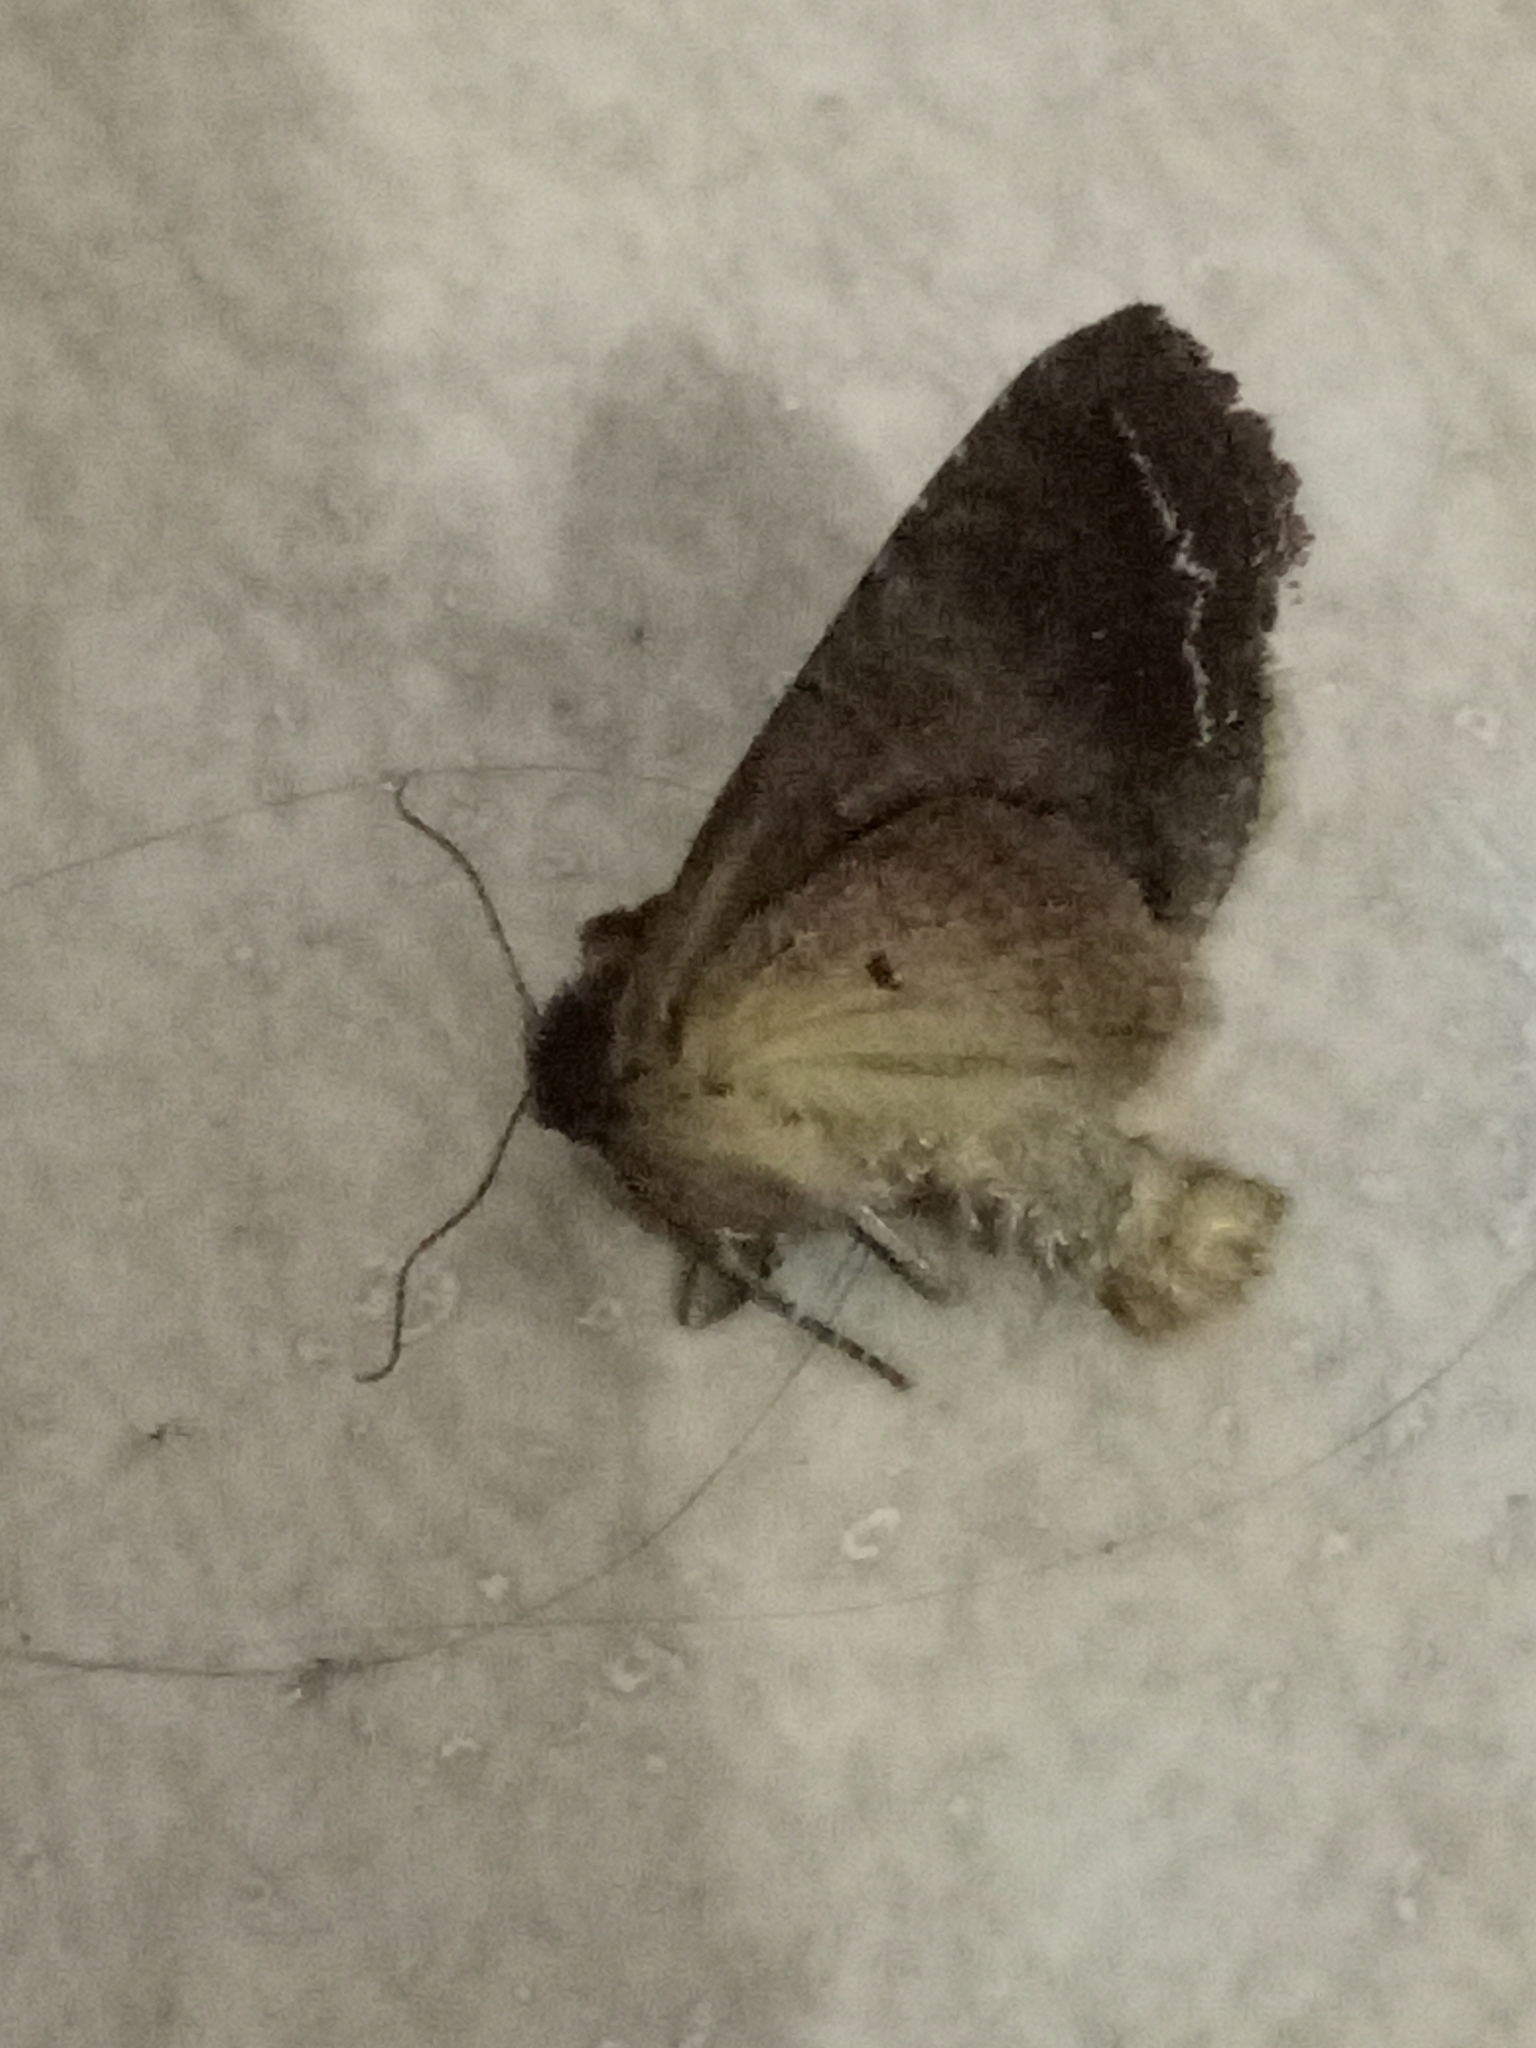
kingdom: Animalia
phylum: Arthropoda
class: Insecta
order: Lepidoptera
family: Noctuidae
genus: Lacanobia
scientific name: Lacanobia oleracea
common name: Bright-line brown-eye
